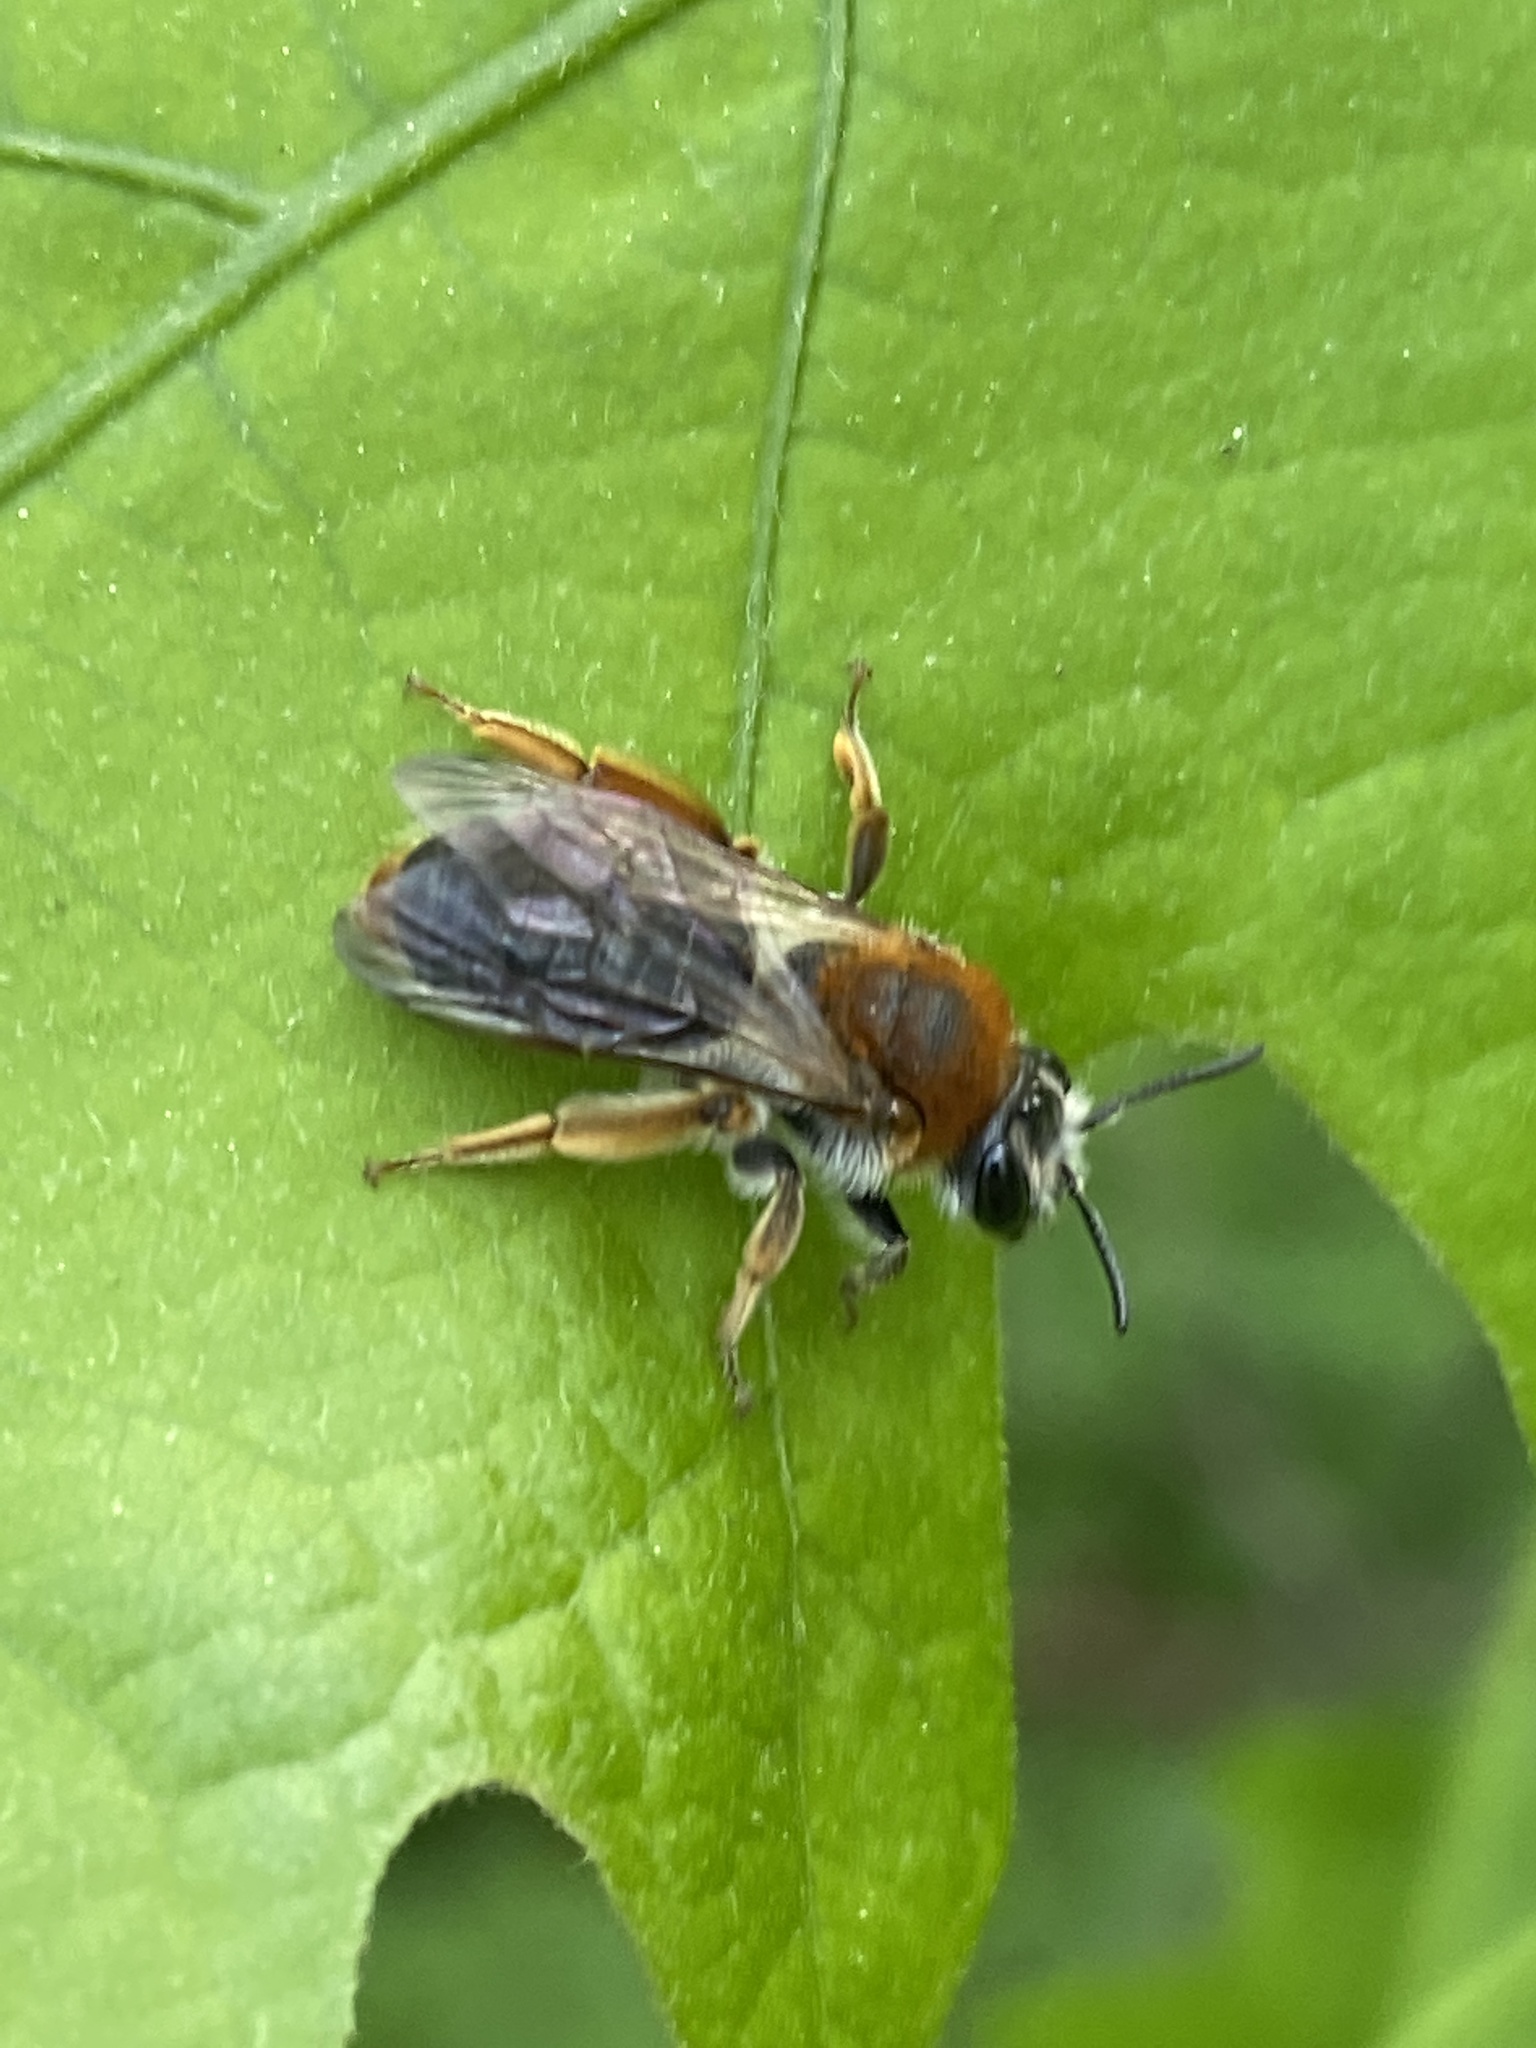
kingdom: Animalia
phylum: Arthropoda
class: Insecta
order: Hymenoptera
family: Andrenidae
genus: Andrena
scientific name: Andrena haemorrhoa
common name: Early mining bee
